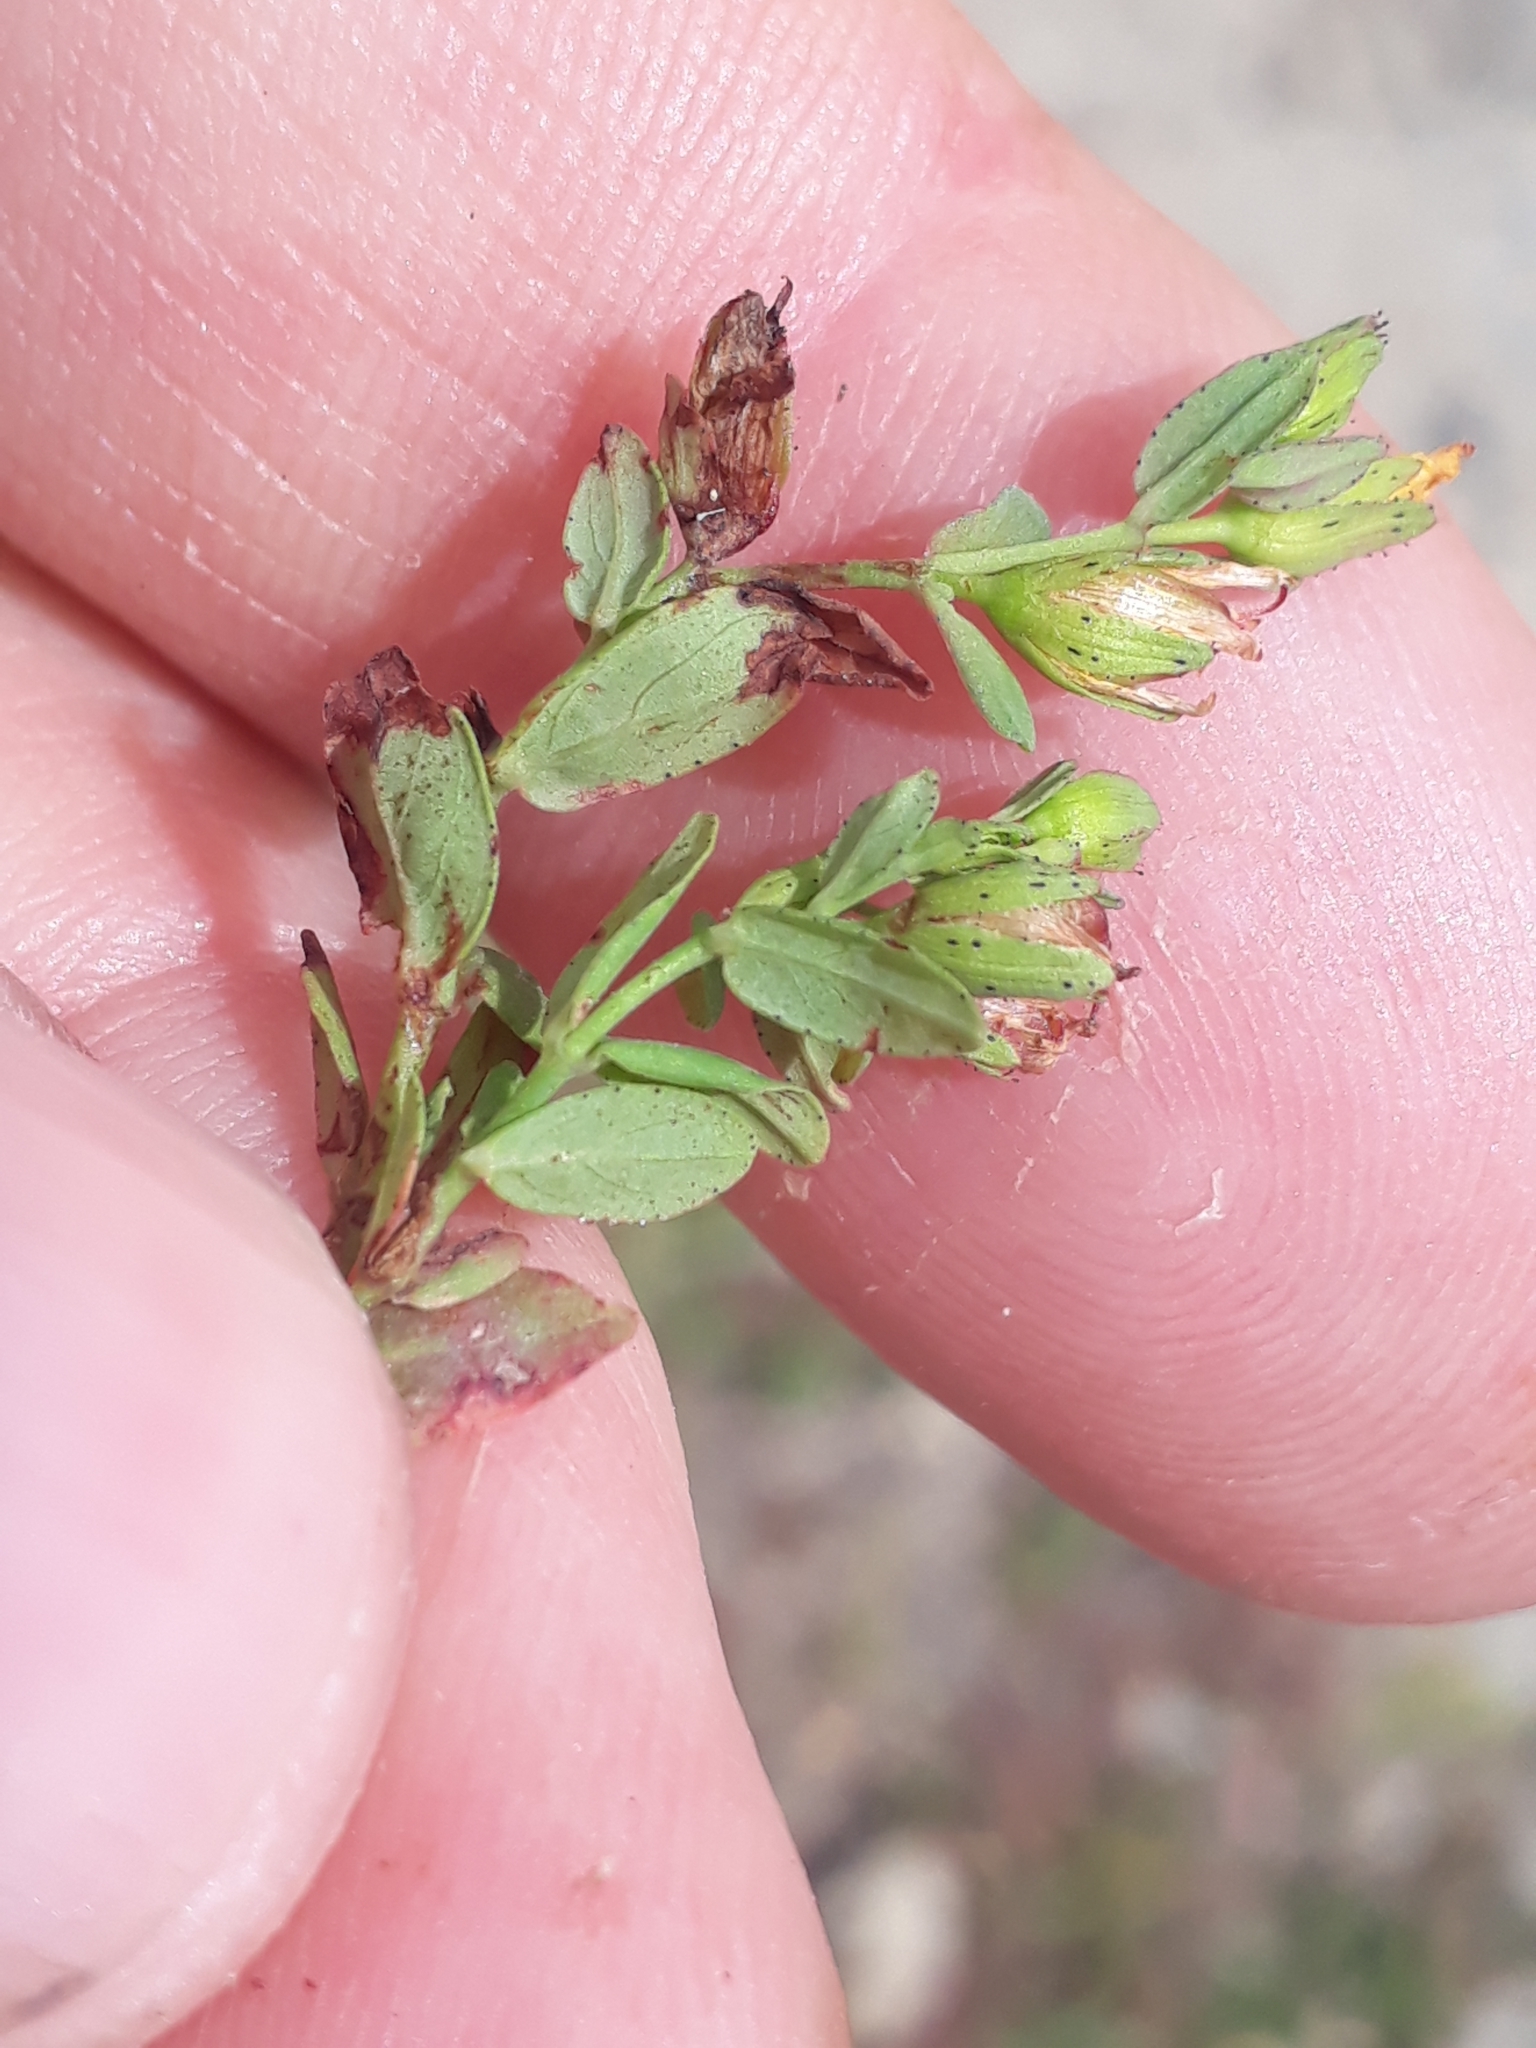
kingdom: Plantae
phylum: Tracheophyta
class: Magnoliopsida
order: Malpighiales
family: Hypericaceae
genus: Hypericum
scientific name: Hypericum humifusum
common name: Trailing st. john's-wort
